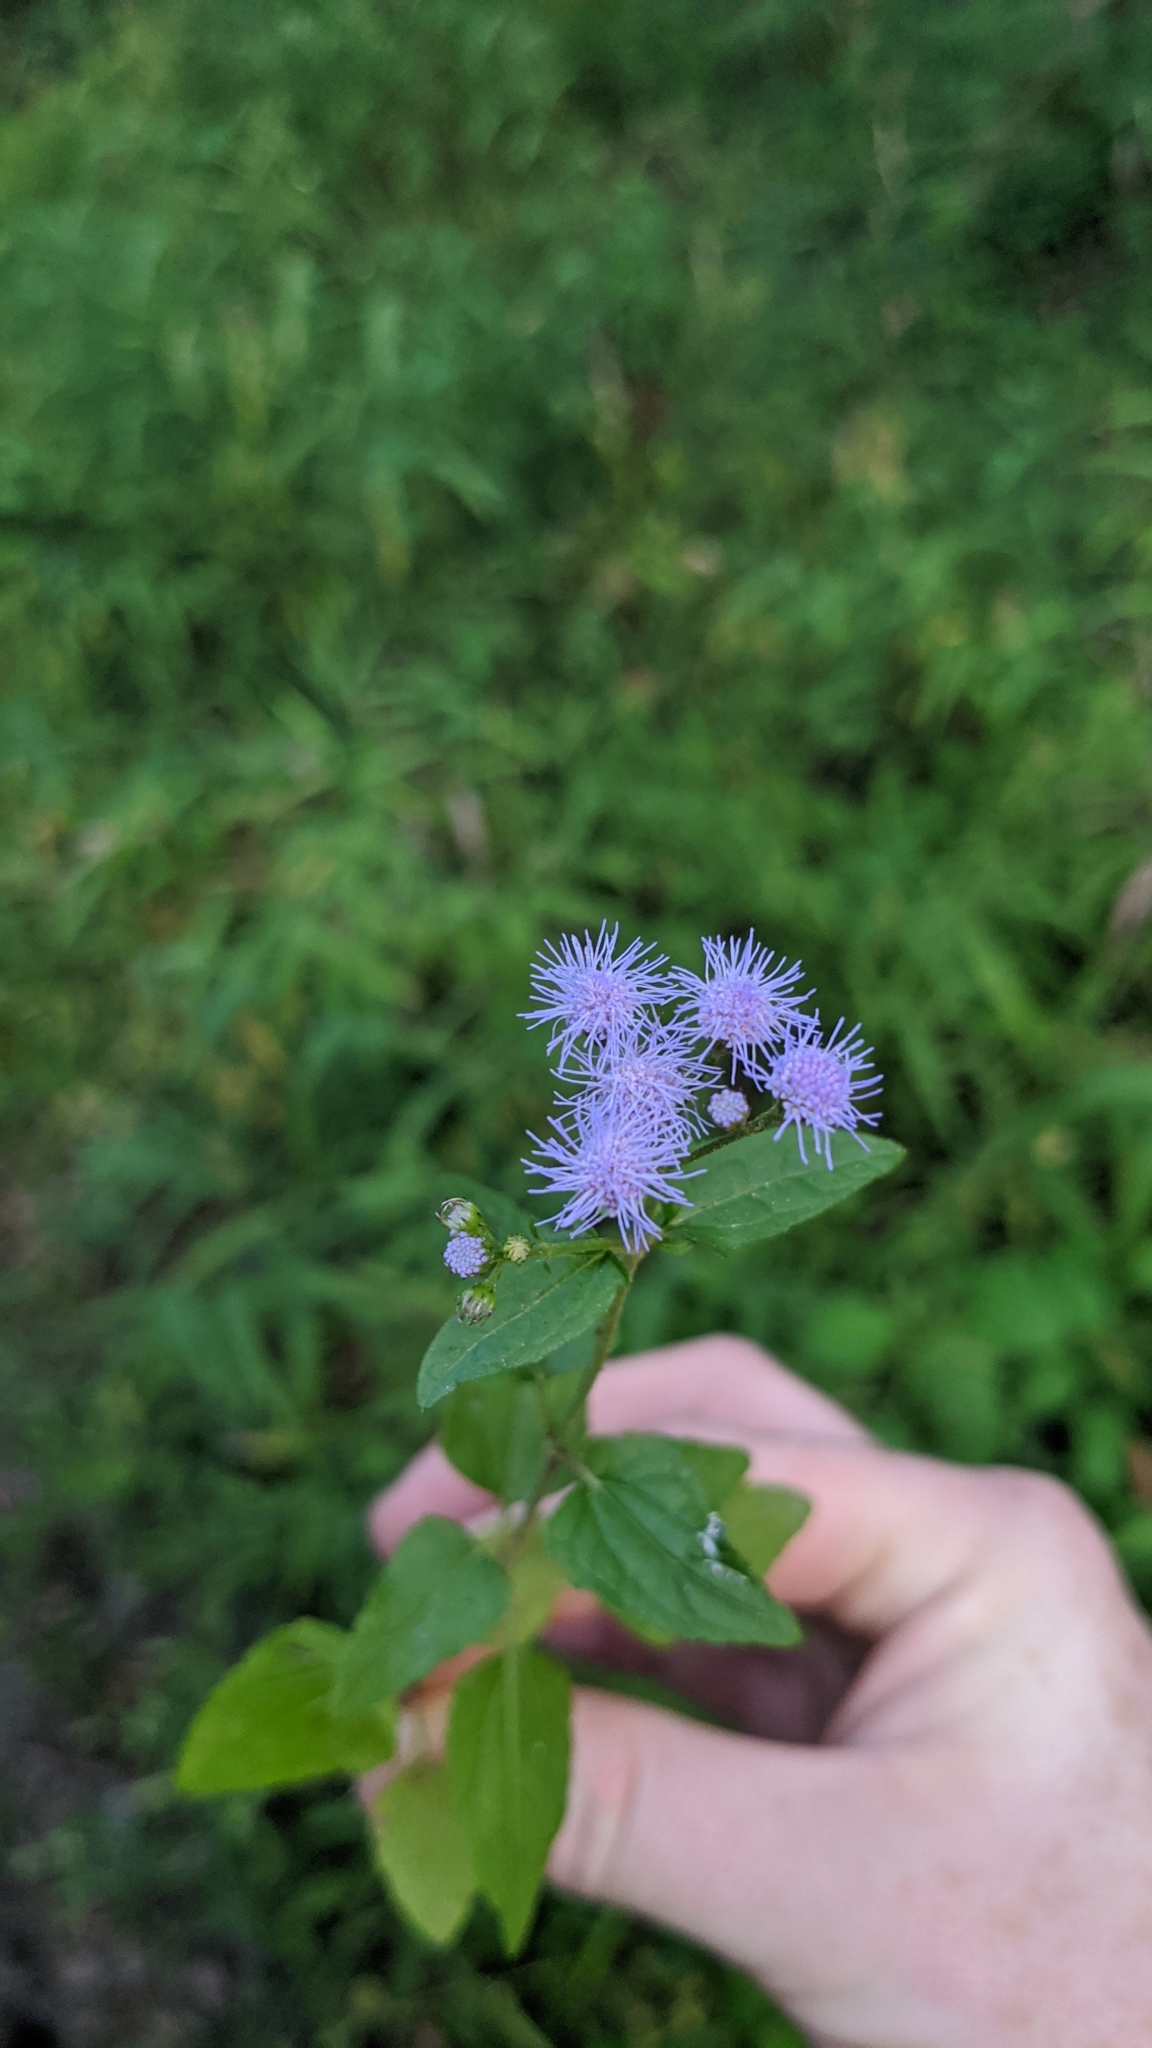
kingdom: Plantae
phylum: Tracheophyta
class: Magnoliopsida
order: Asterales
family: Asteraceae
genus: Conoclinium
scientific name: Conoclinium coelestinum
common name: Blue mistflower
